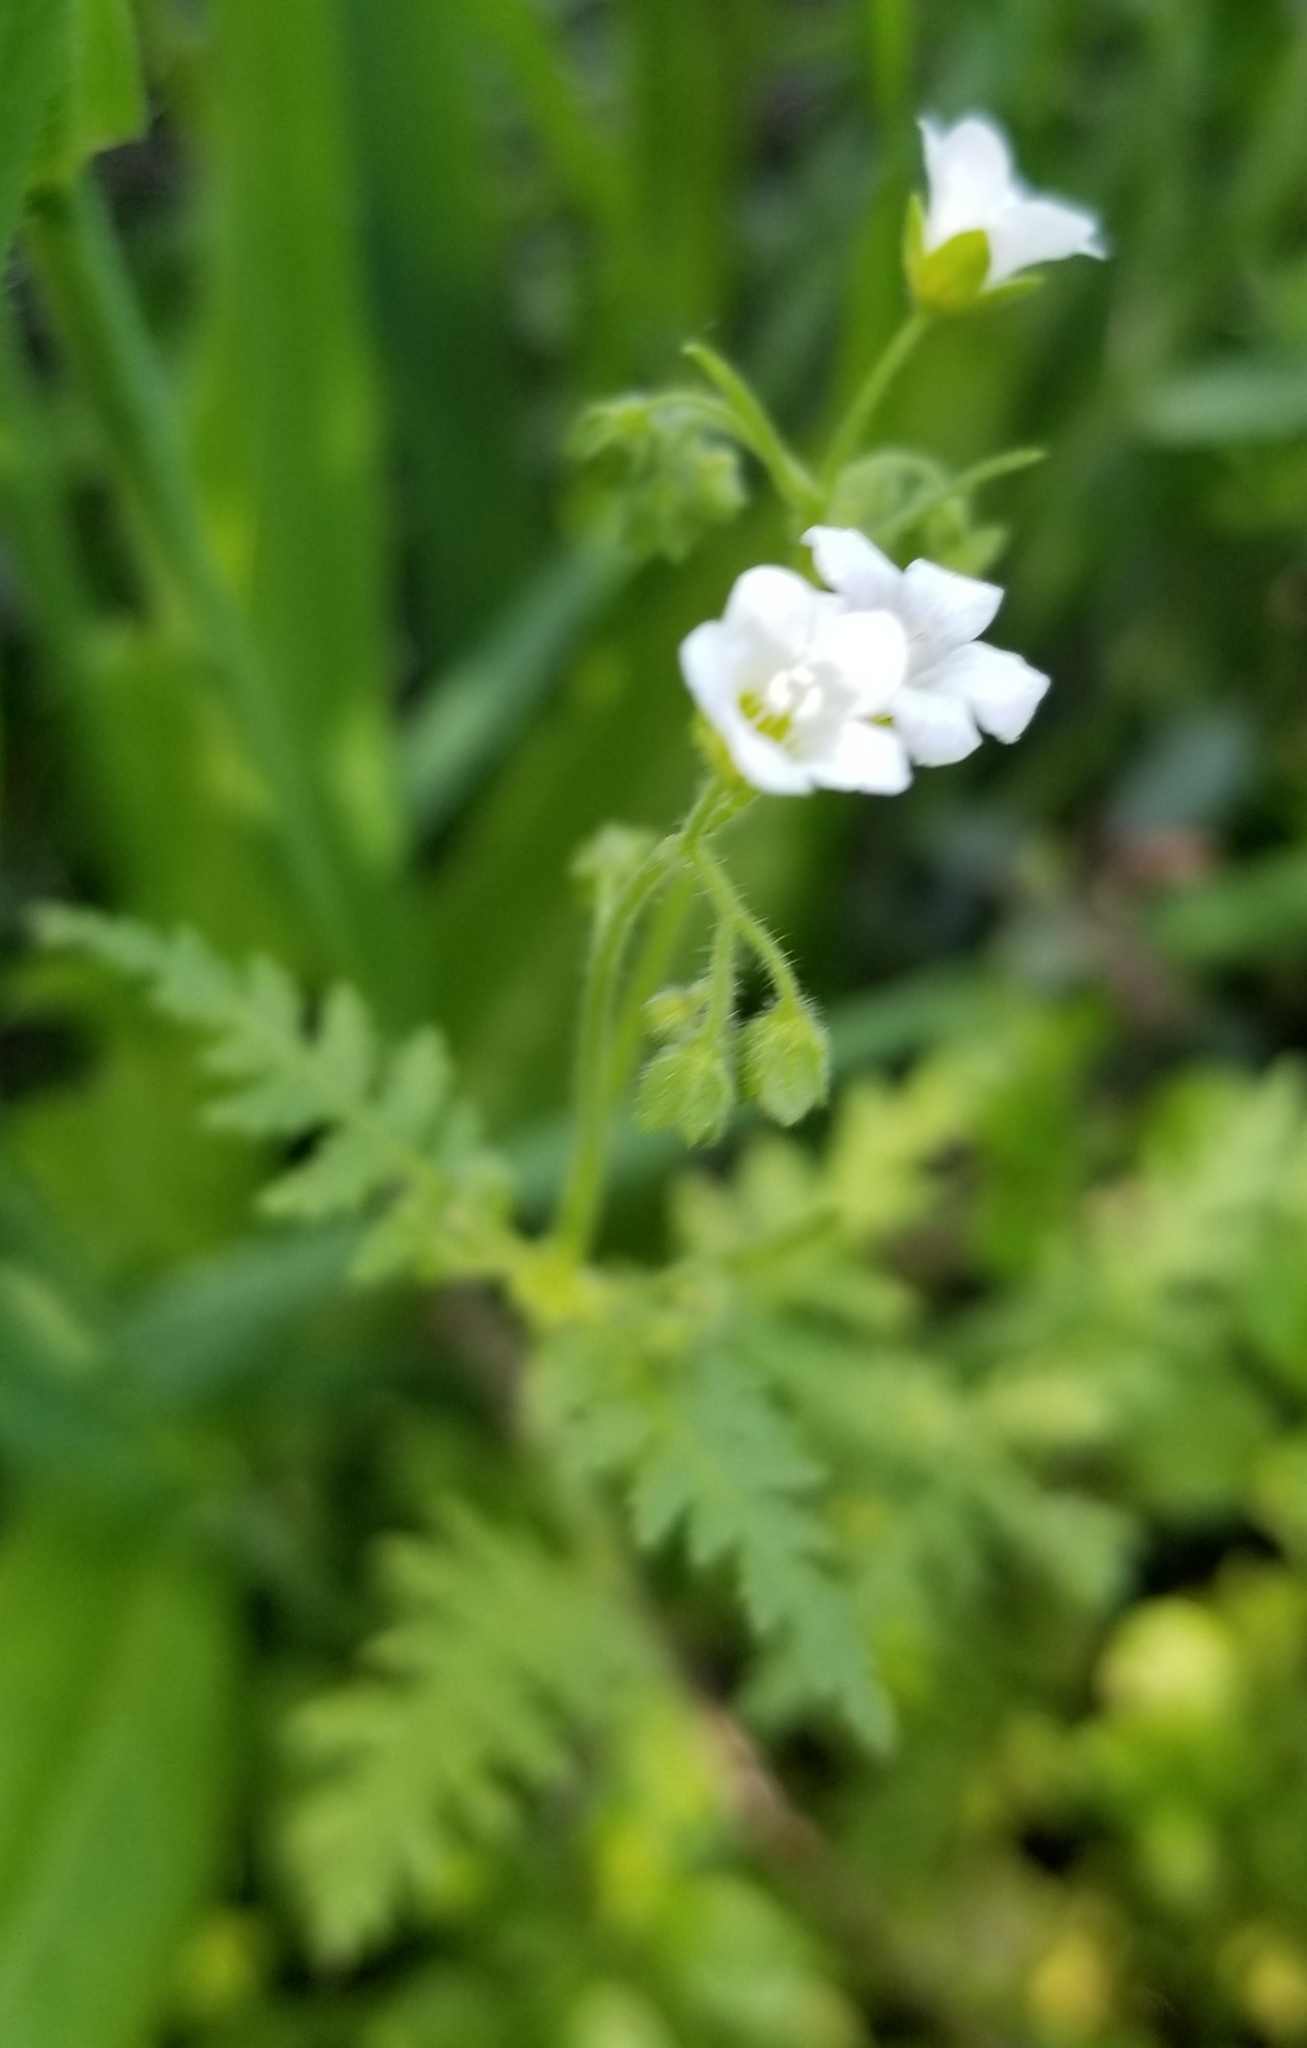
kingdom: Plantae
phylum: Tracheophyta
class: Magnoliopsida
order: Boraginales
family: Hydrophyllaceae
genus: Eucrypta
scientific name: Eucrypta chrysanthemifolia
